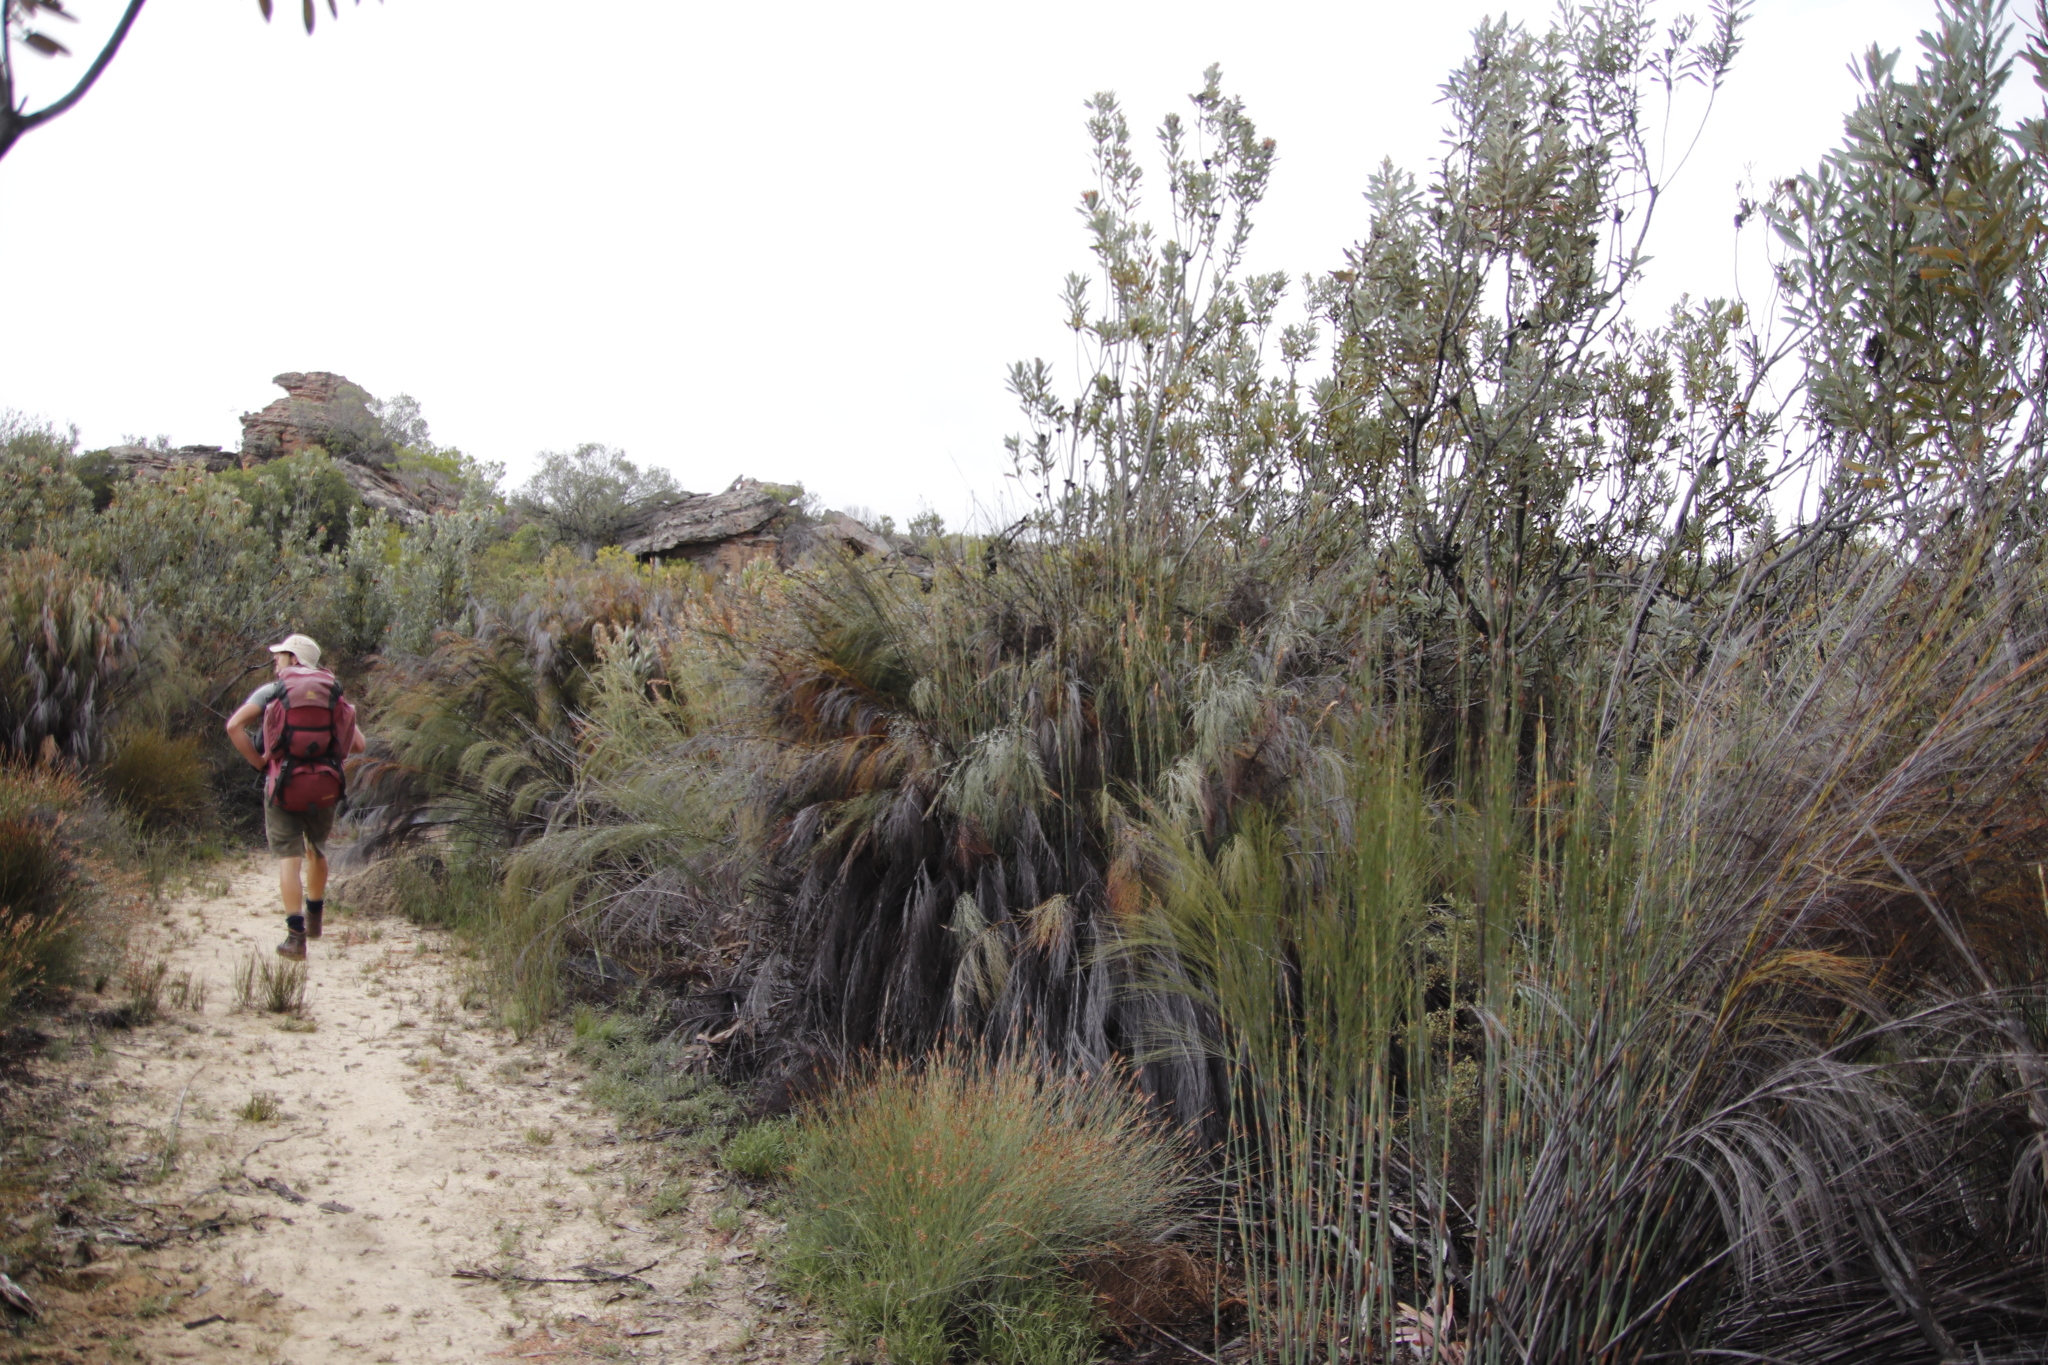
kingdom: Plantae
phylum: Tracheophyta
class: Liliopsida
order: Poales
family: Restionaceae
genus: Cannomois
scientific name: Cannomois robusta
